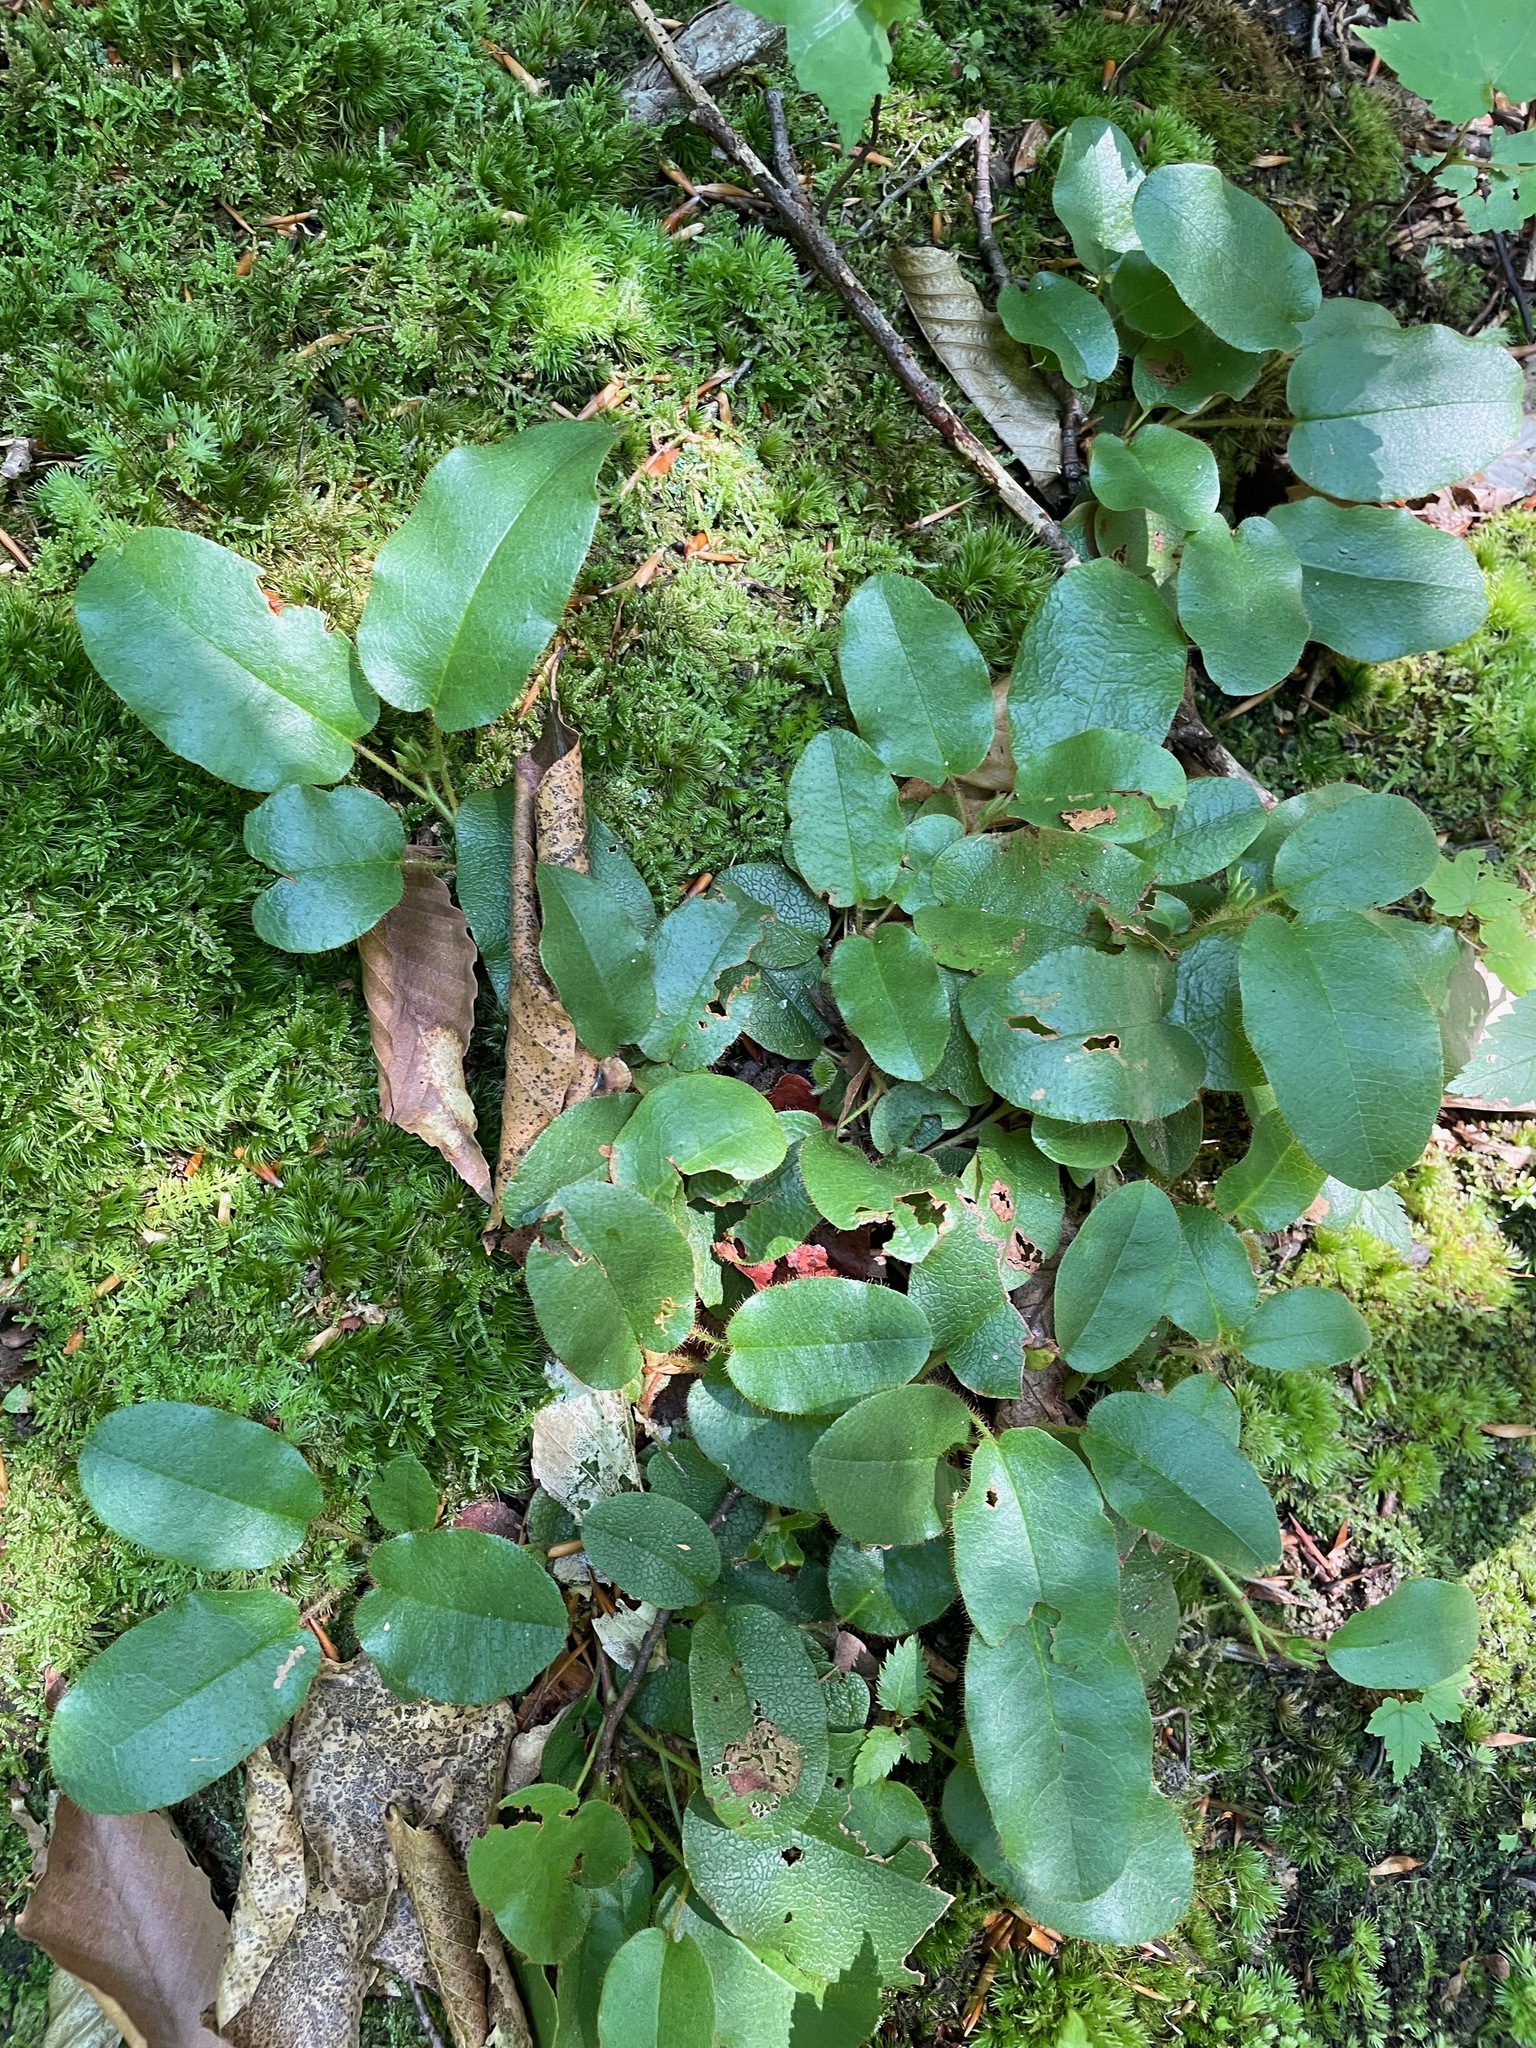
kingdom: Plantae
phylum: Tracheophyta
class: Magnoliopsida
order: Ericales
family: Ericaceae
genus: Epigaea
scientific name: Epigaea repens
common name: Gravelroot
